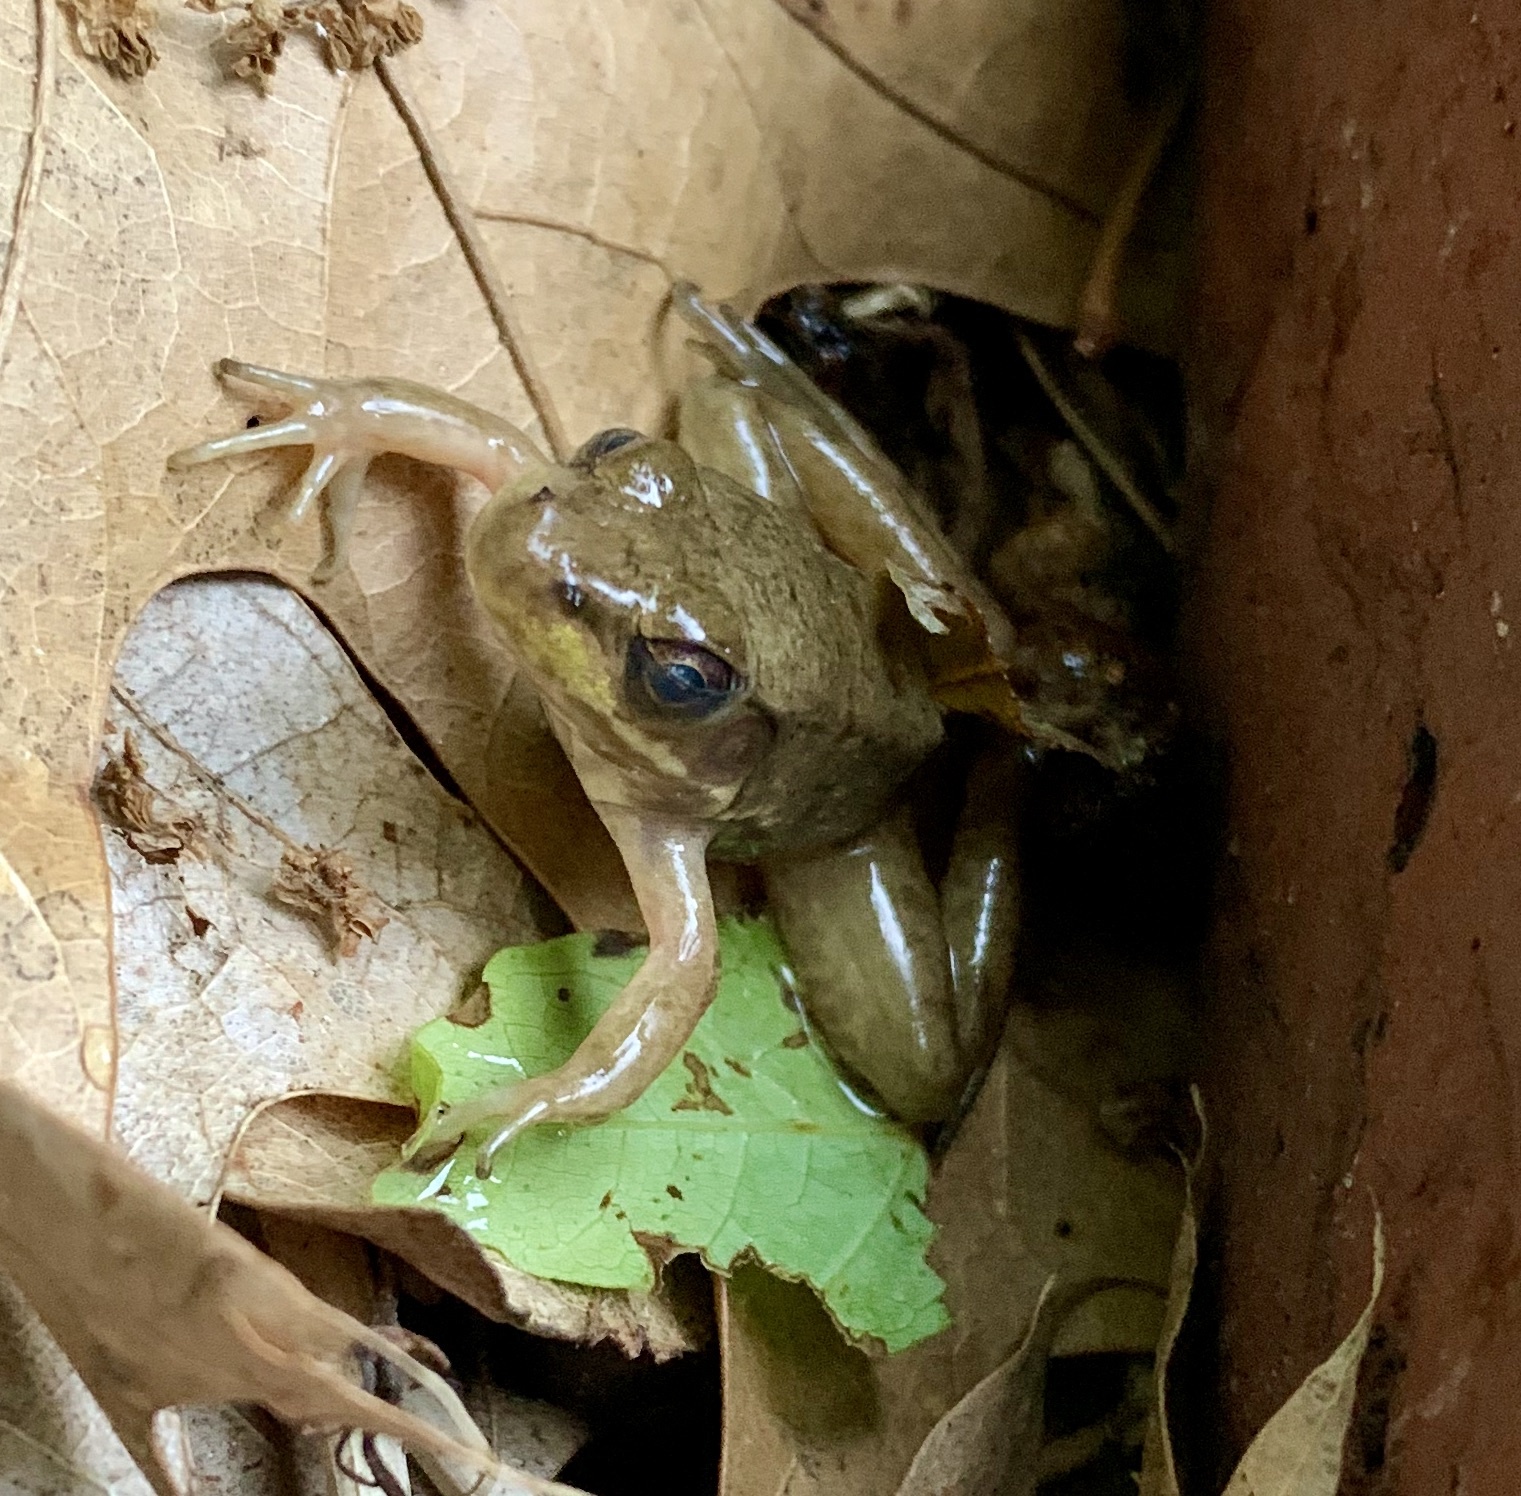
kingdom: Animalia
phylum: Chordata
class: Amphibia
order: Anura
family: Ranidae
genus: Lithobates
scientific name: Lithobates catesbeianus
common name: American bullfrog
